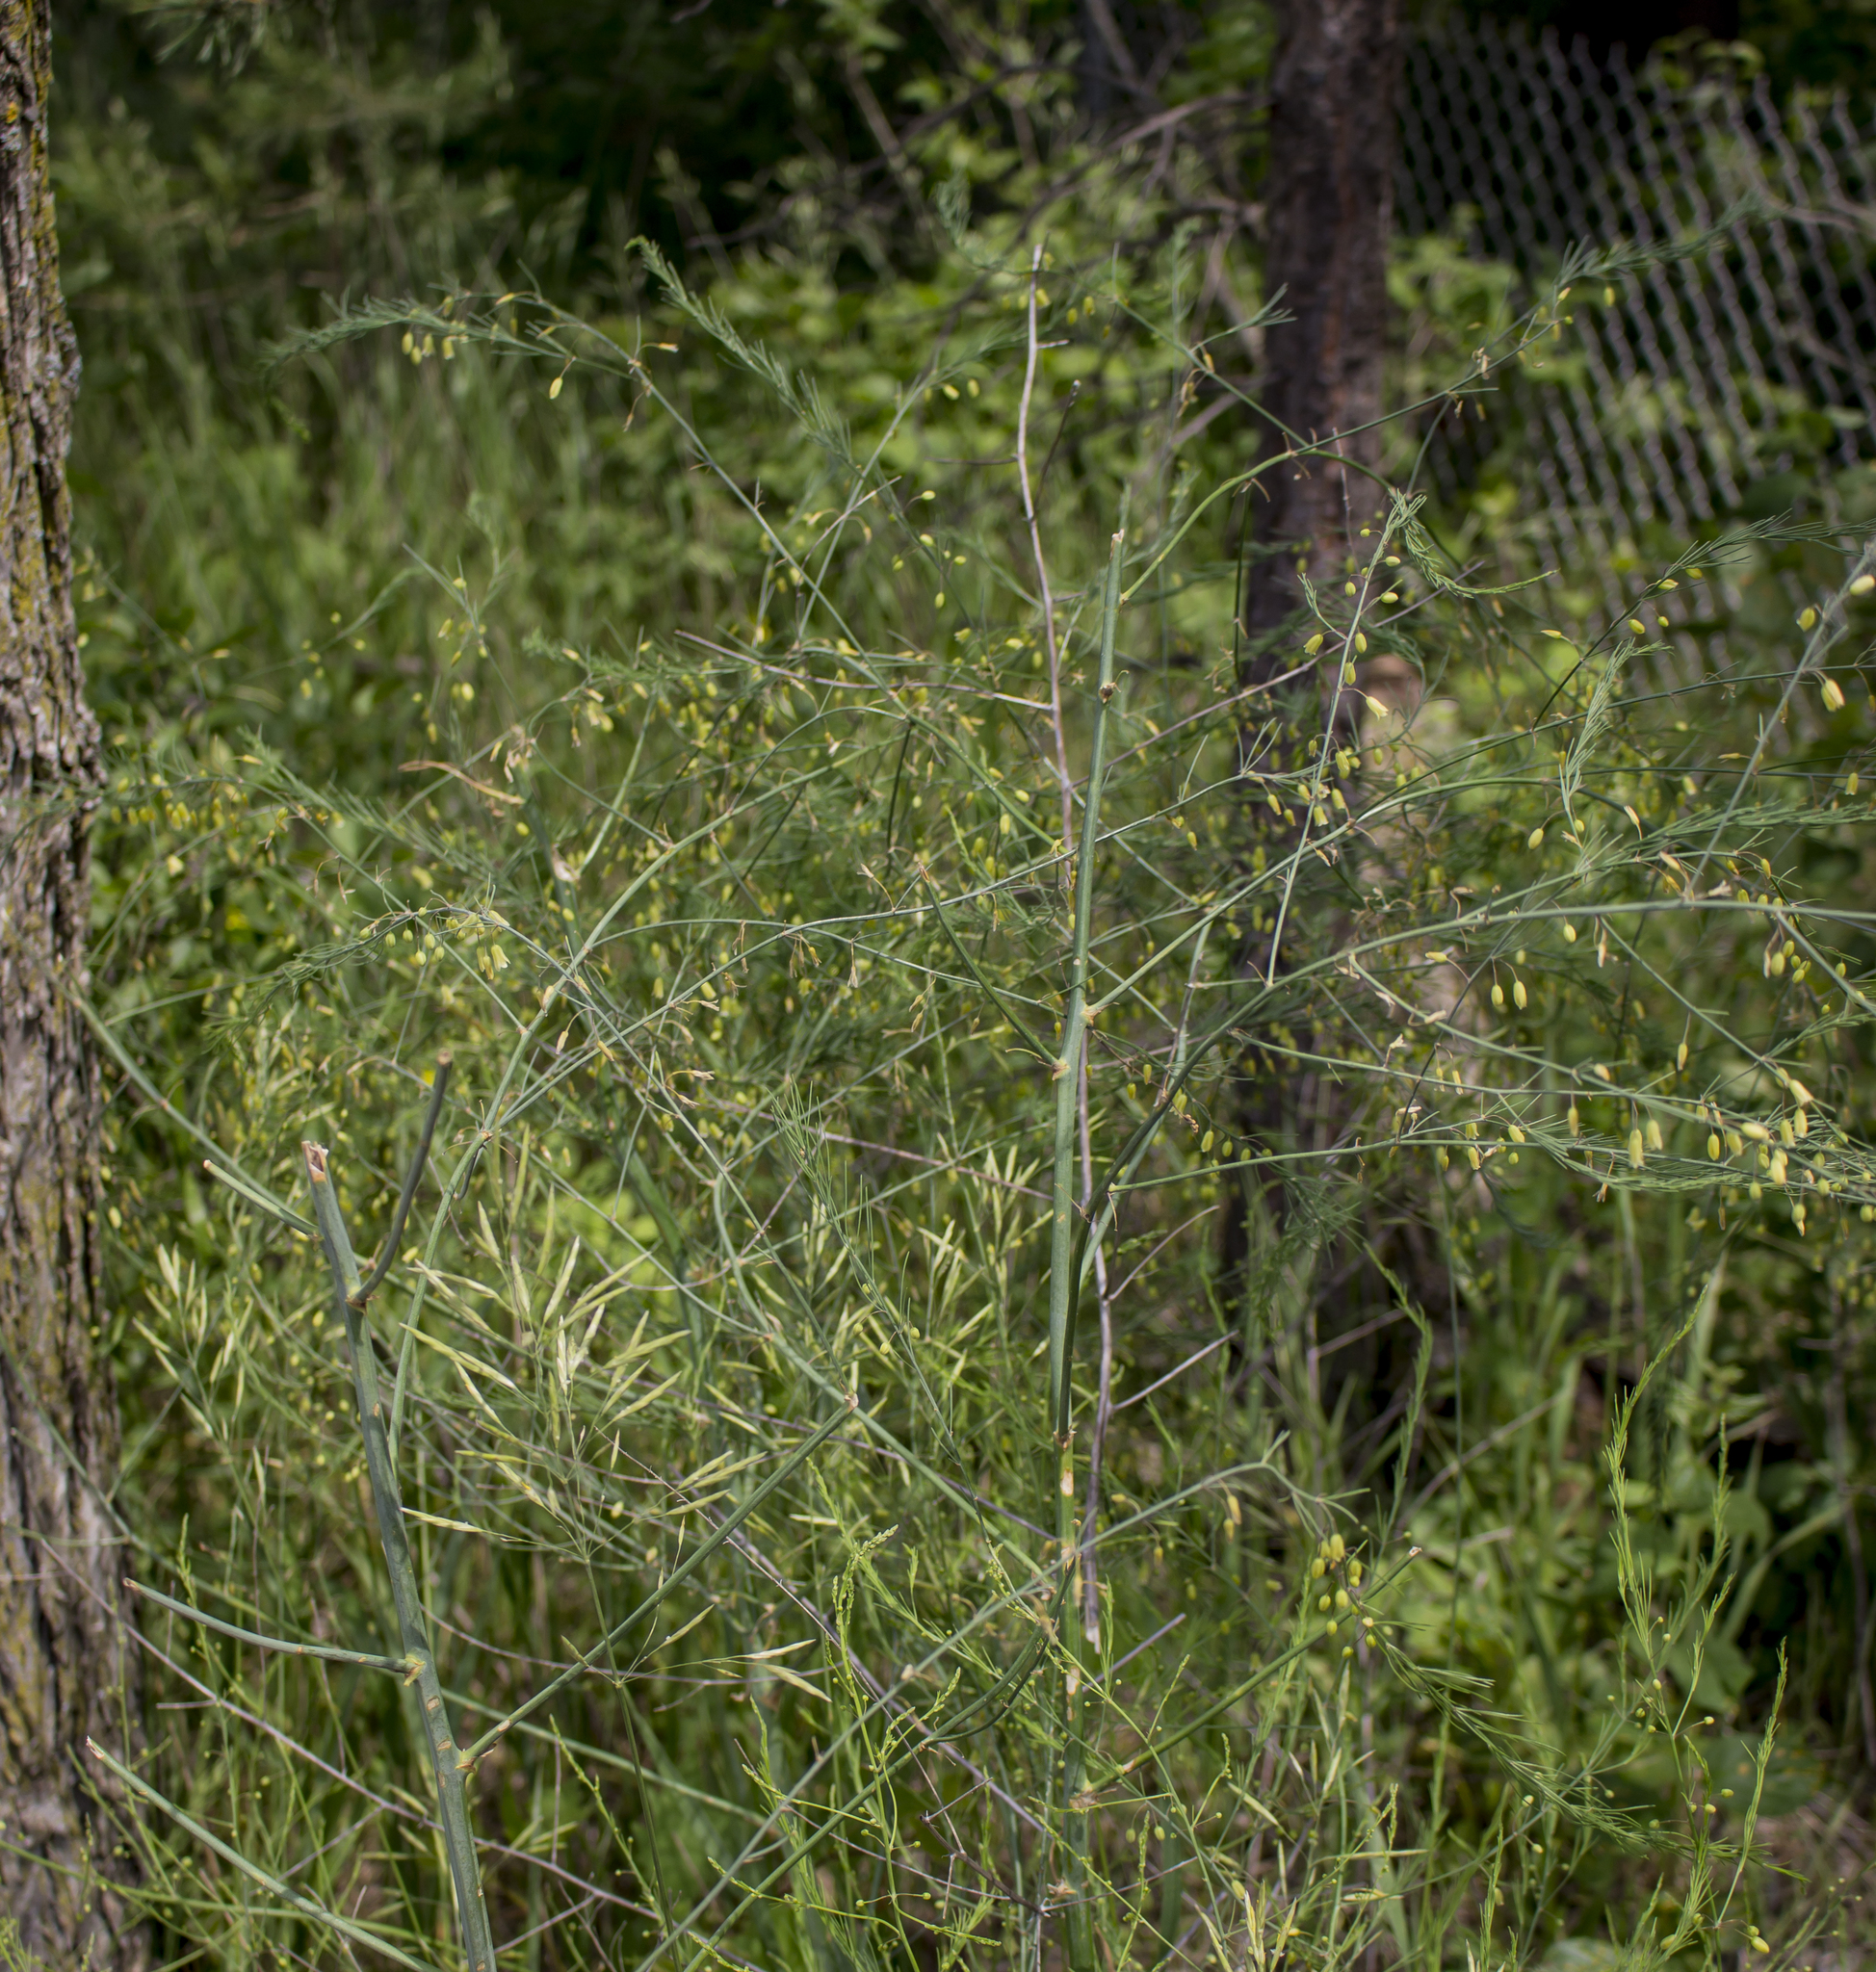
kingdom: Plantae
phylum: Tracheophyta
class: Liliopsida
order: Asparagales
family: Asparagaceae
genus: Asparagus
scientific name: Asparagus officinalis
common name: Garden asparagus
